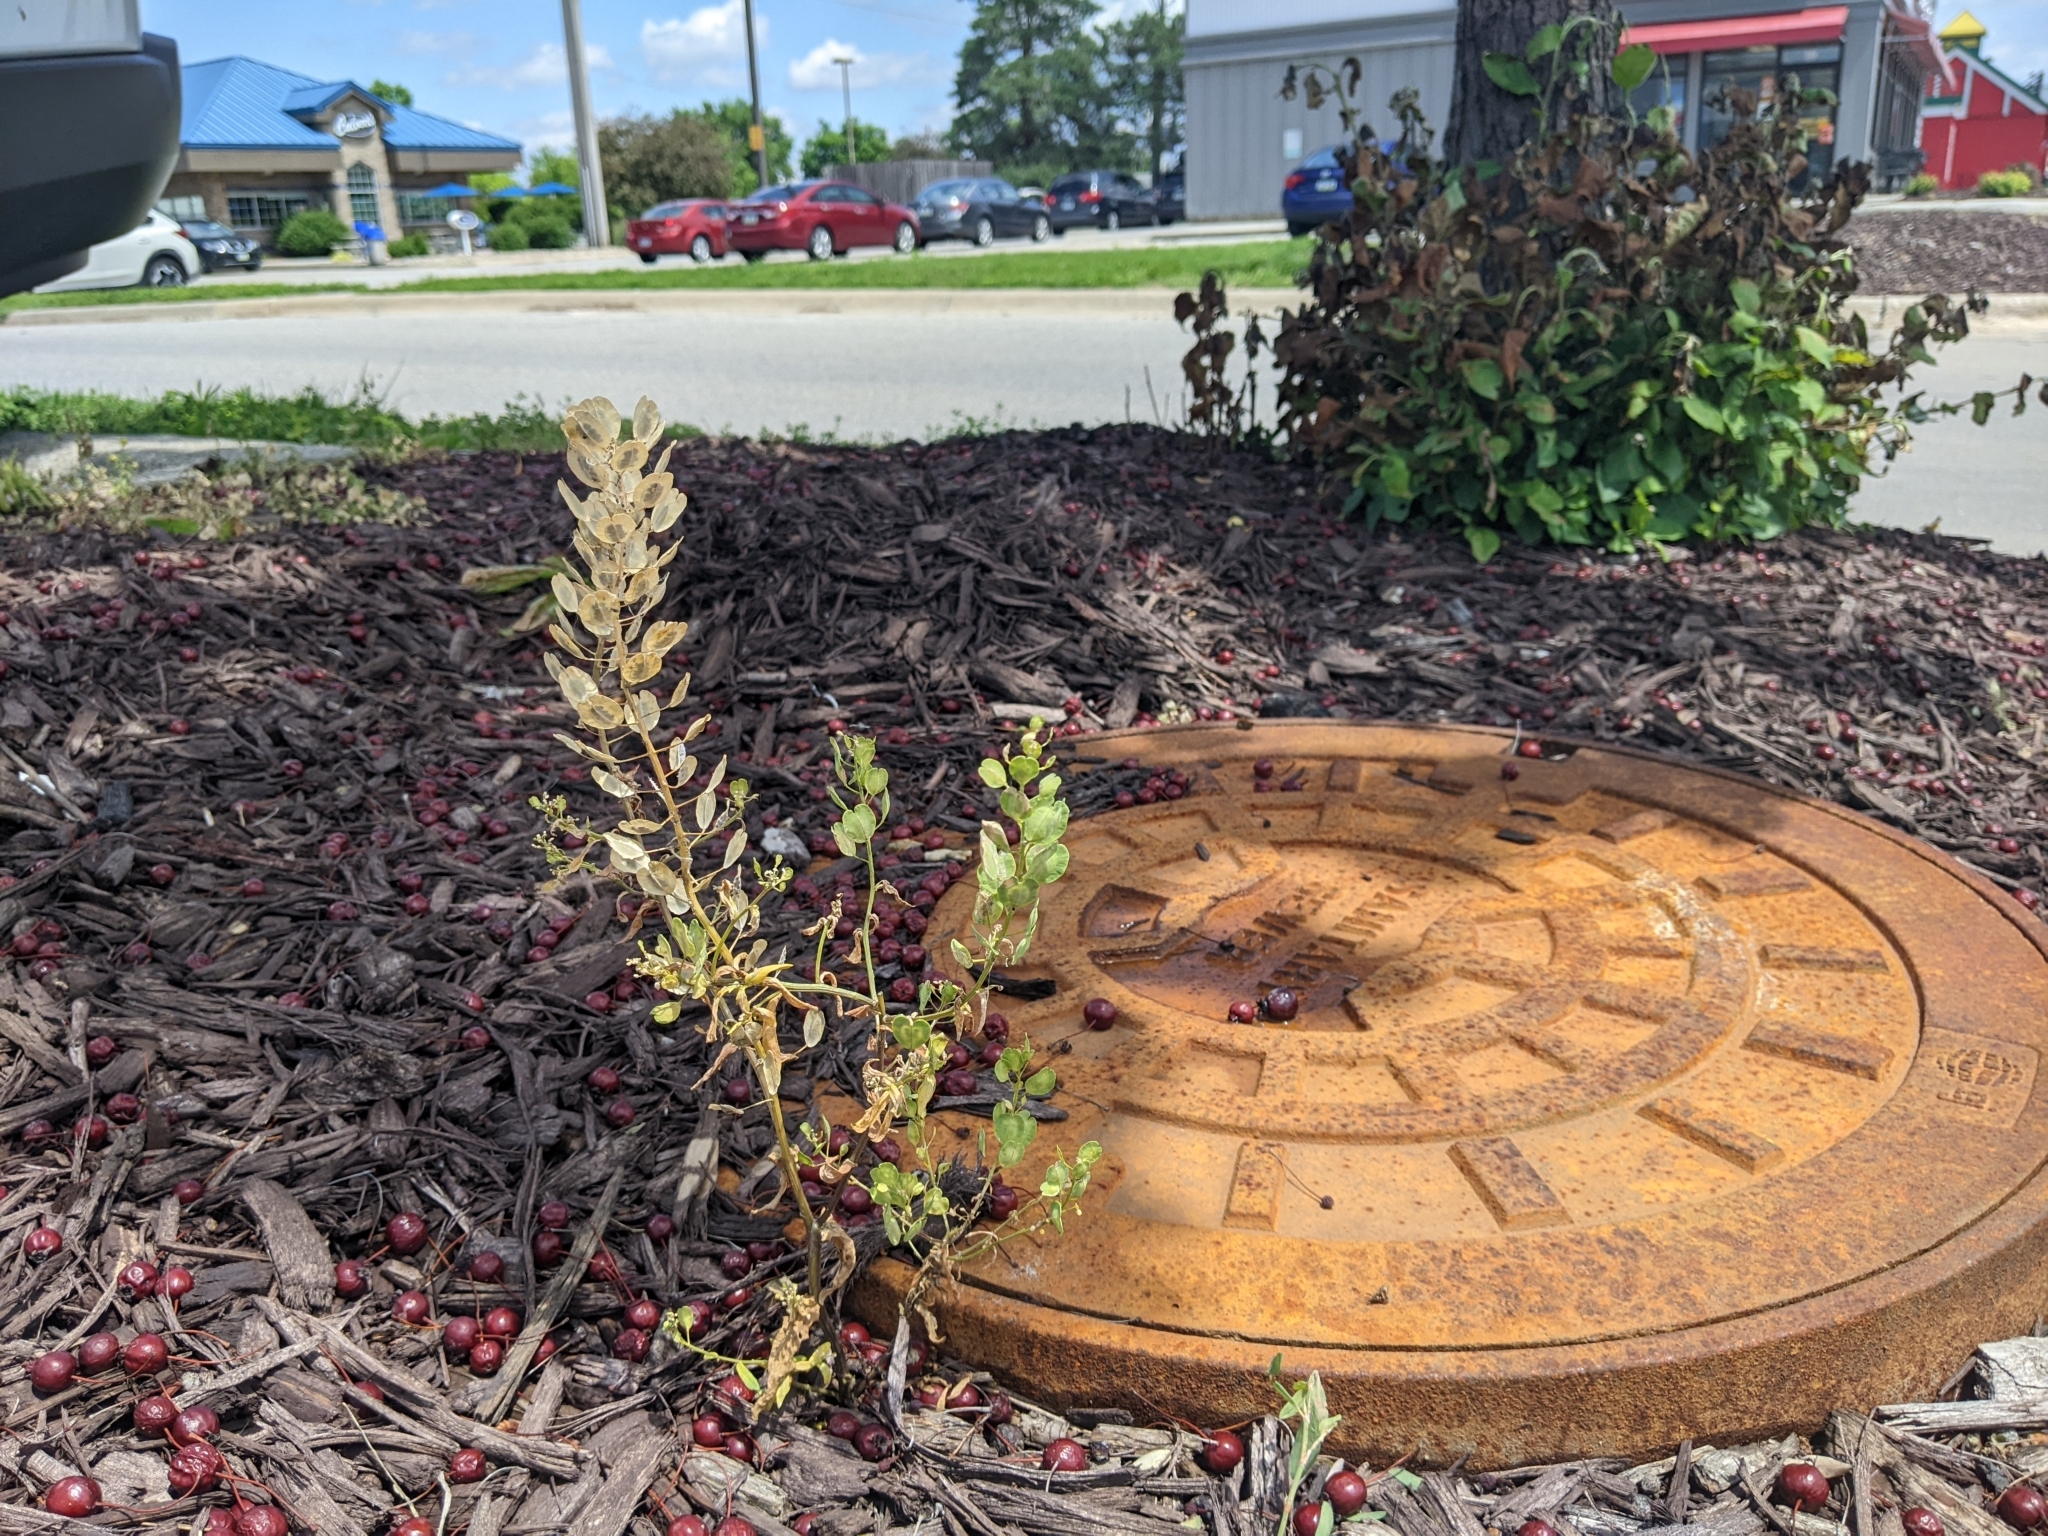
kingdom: Plantae
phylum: Tracheophyta
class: Magnoliopsida
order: Brassicales
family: Brassicaceae
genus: Thlaspi
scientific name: Thlaspi arvense
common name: Field pennycress
